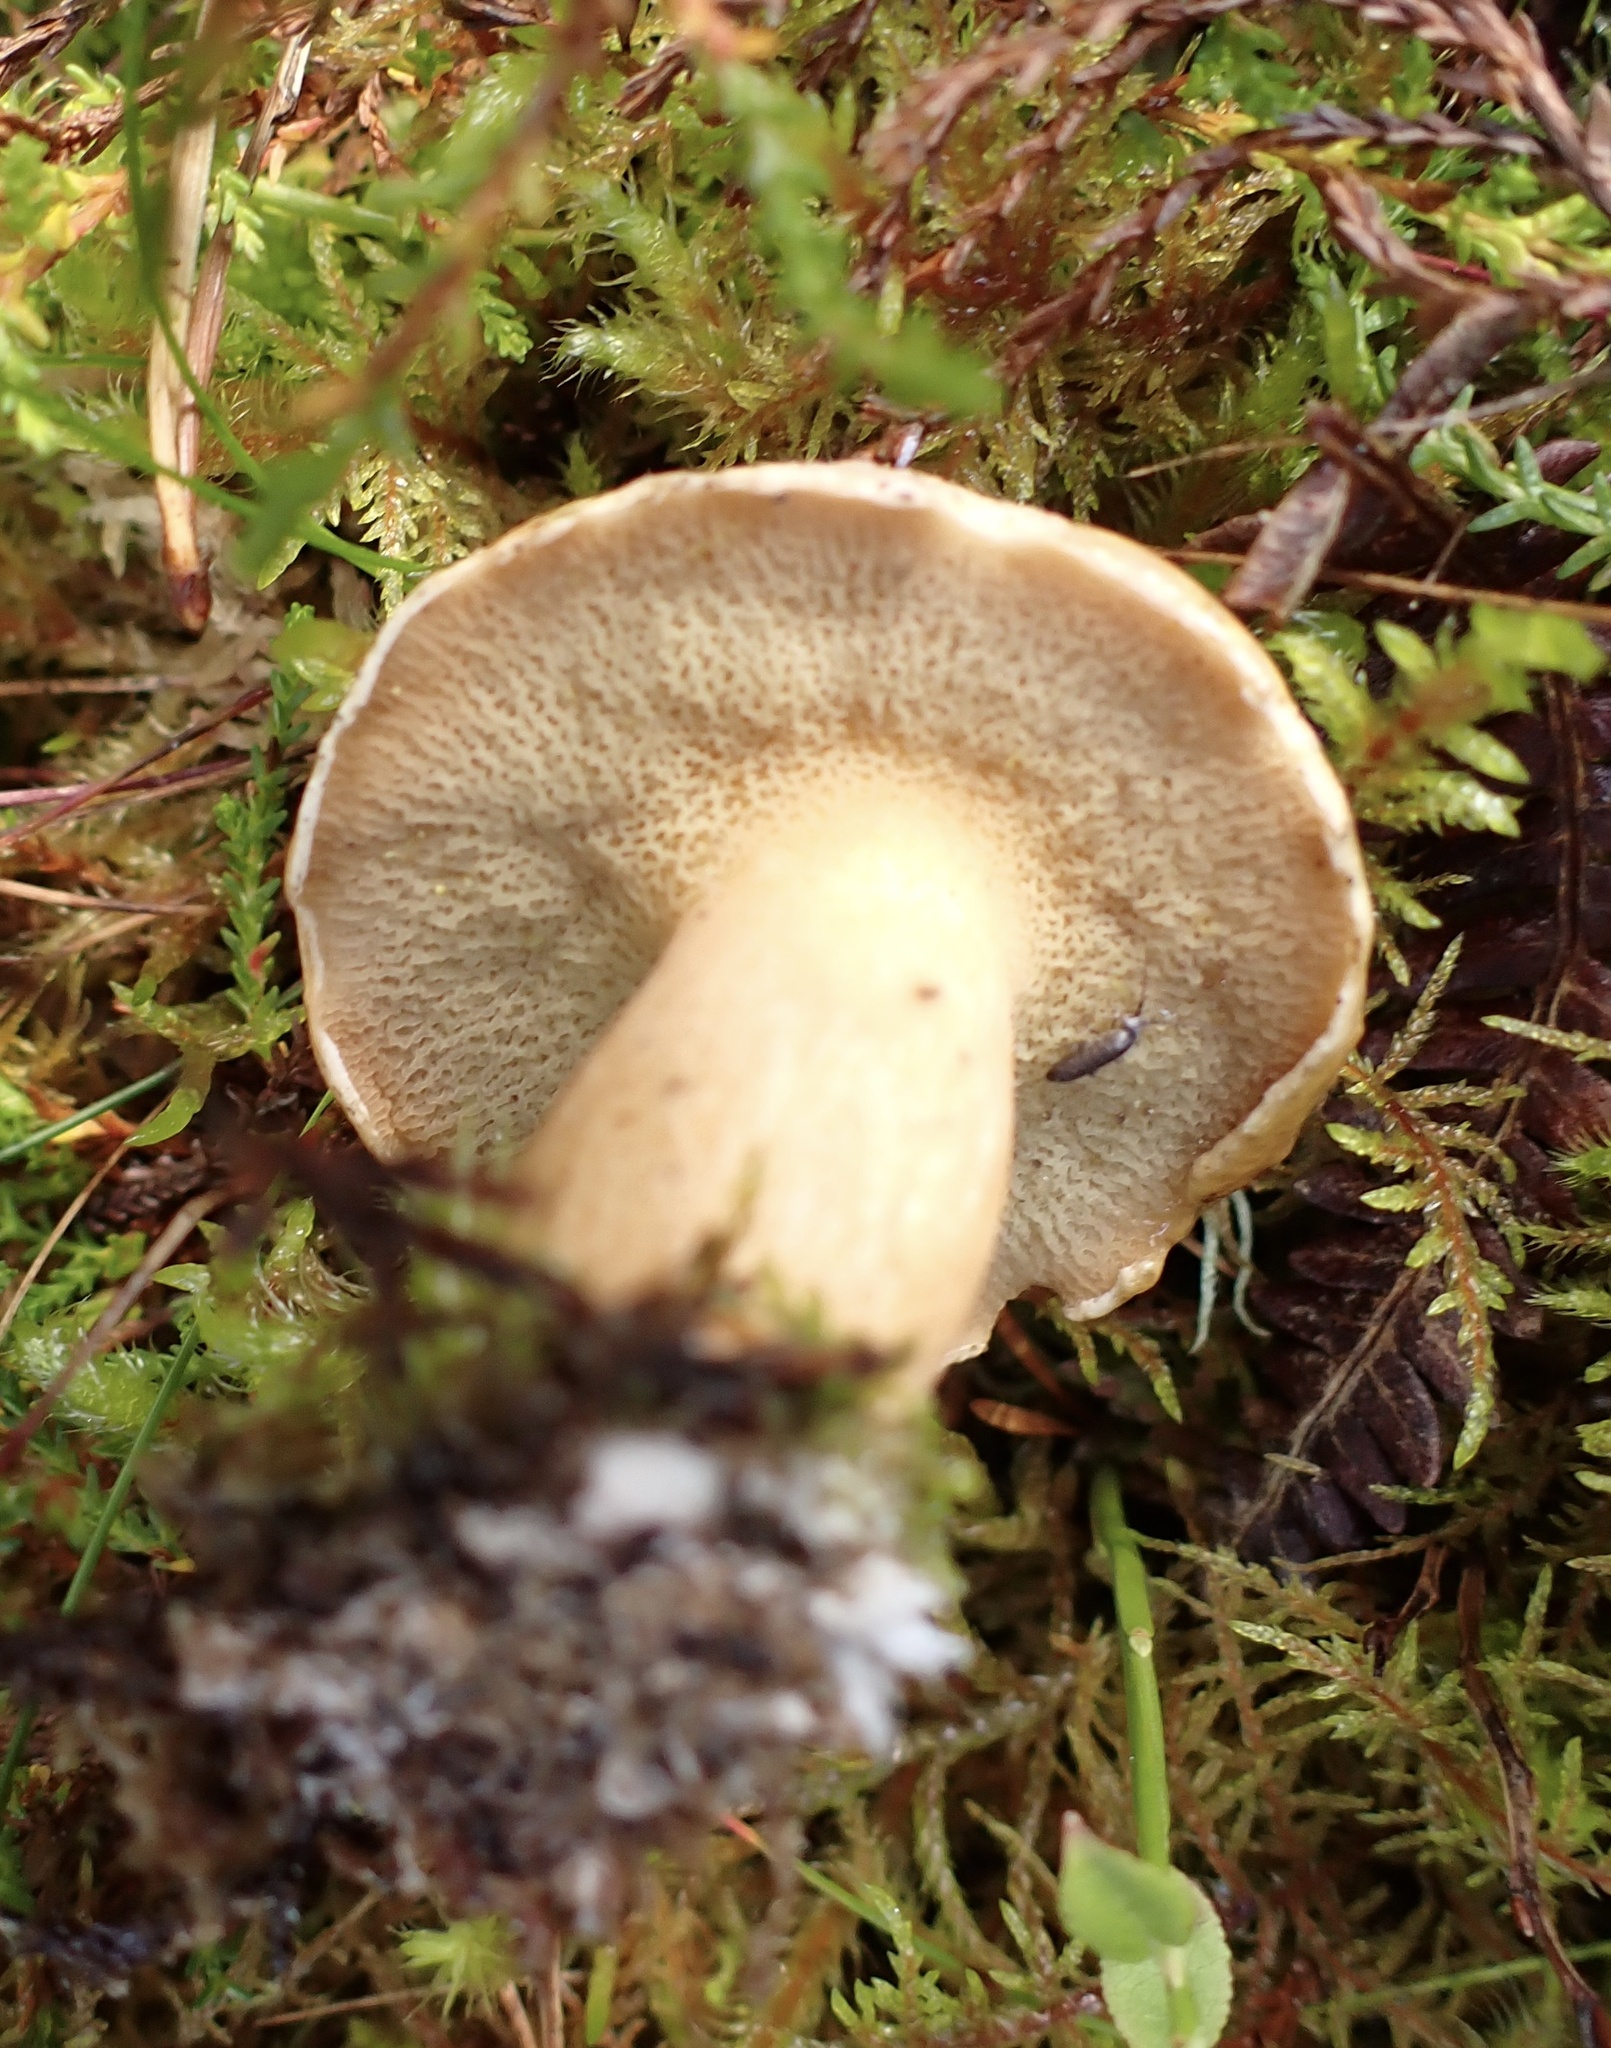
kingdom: Fungi
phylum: Basidiomycota
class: Agaricomycetes
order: Boletales
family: Suillaceae
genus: Suillus
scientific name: Suillus bovinus
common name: Bovine bolete
